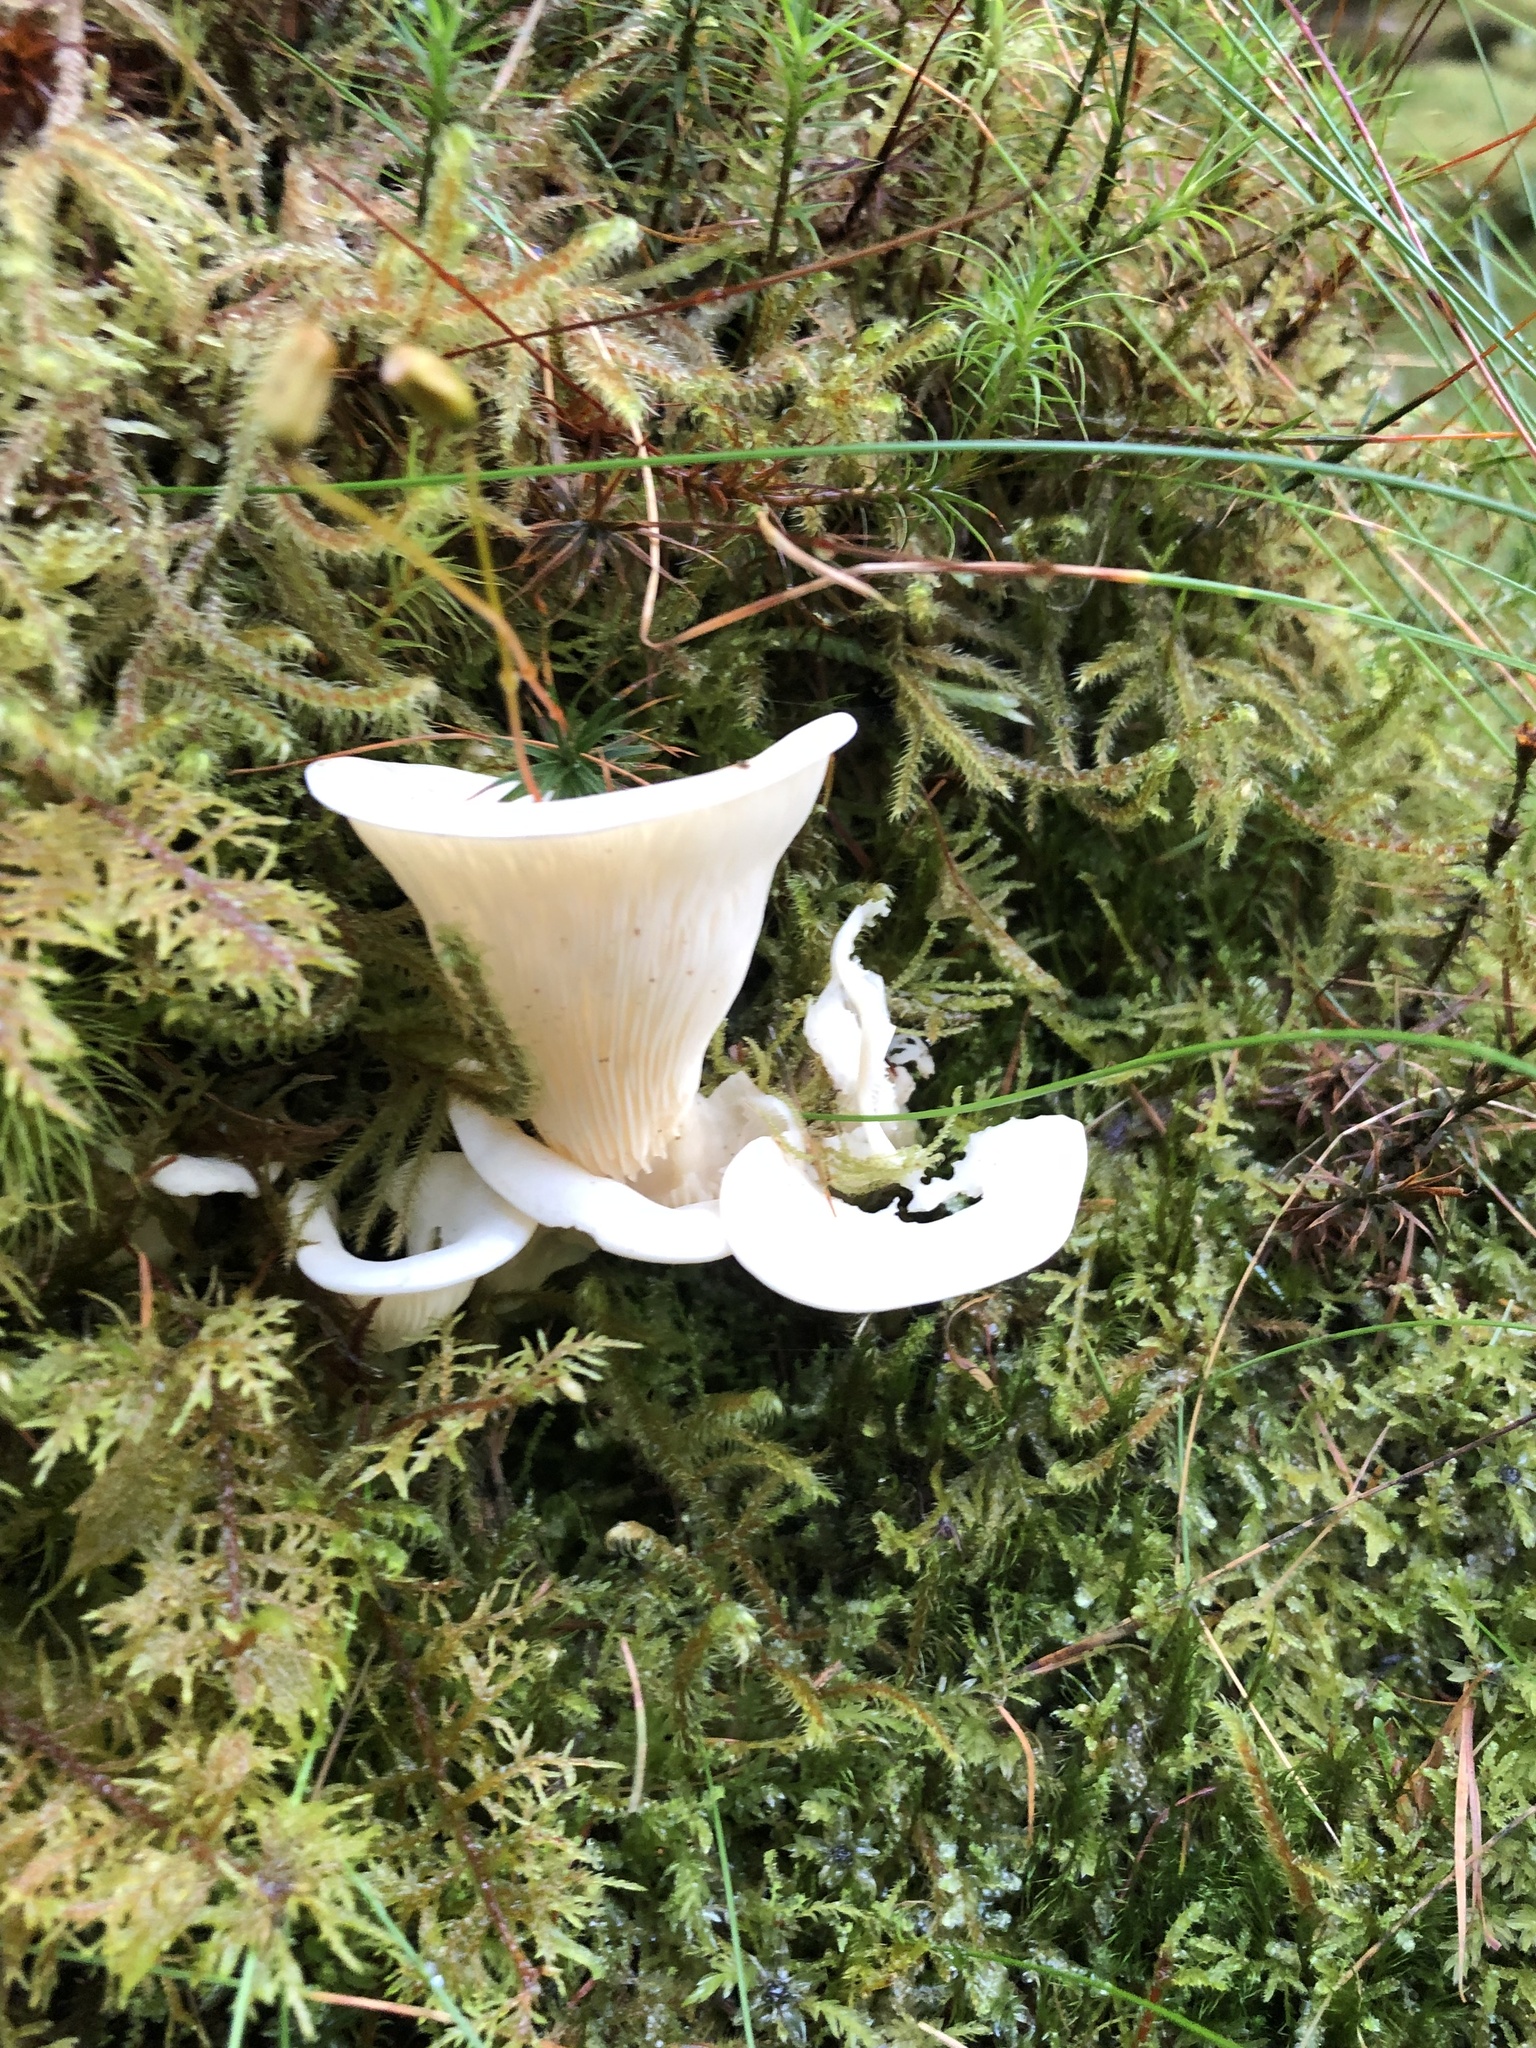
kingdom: Fungi
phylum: Basidiomycota
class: Agaricomycetes
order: Agaricales
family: Marasmiaceae
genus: Pleurocybella
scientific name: Pleurocybella porrigens
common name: Angel's wings
